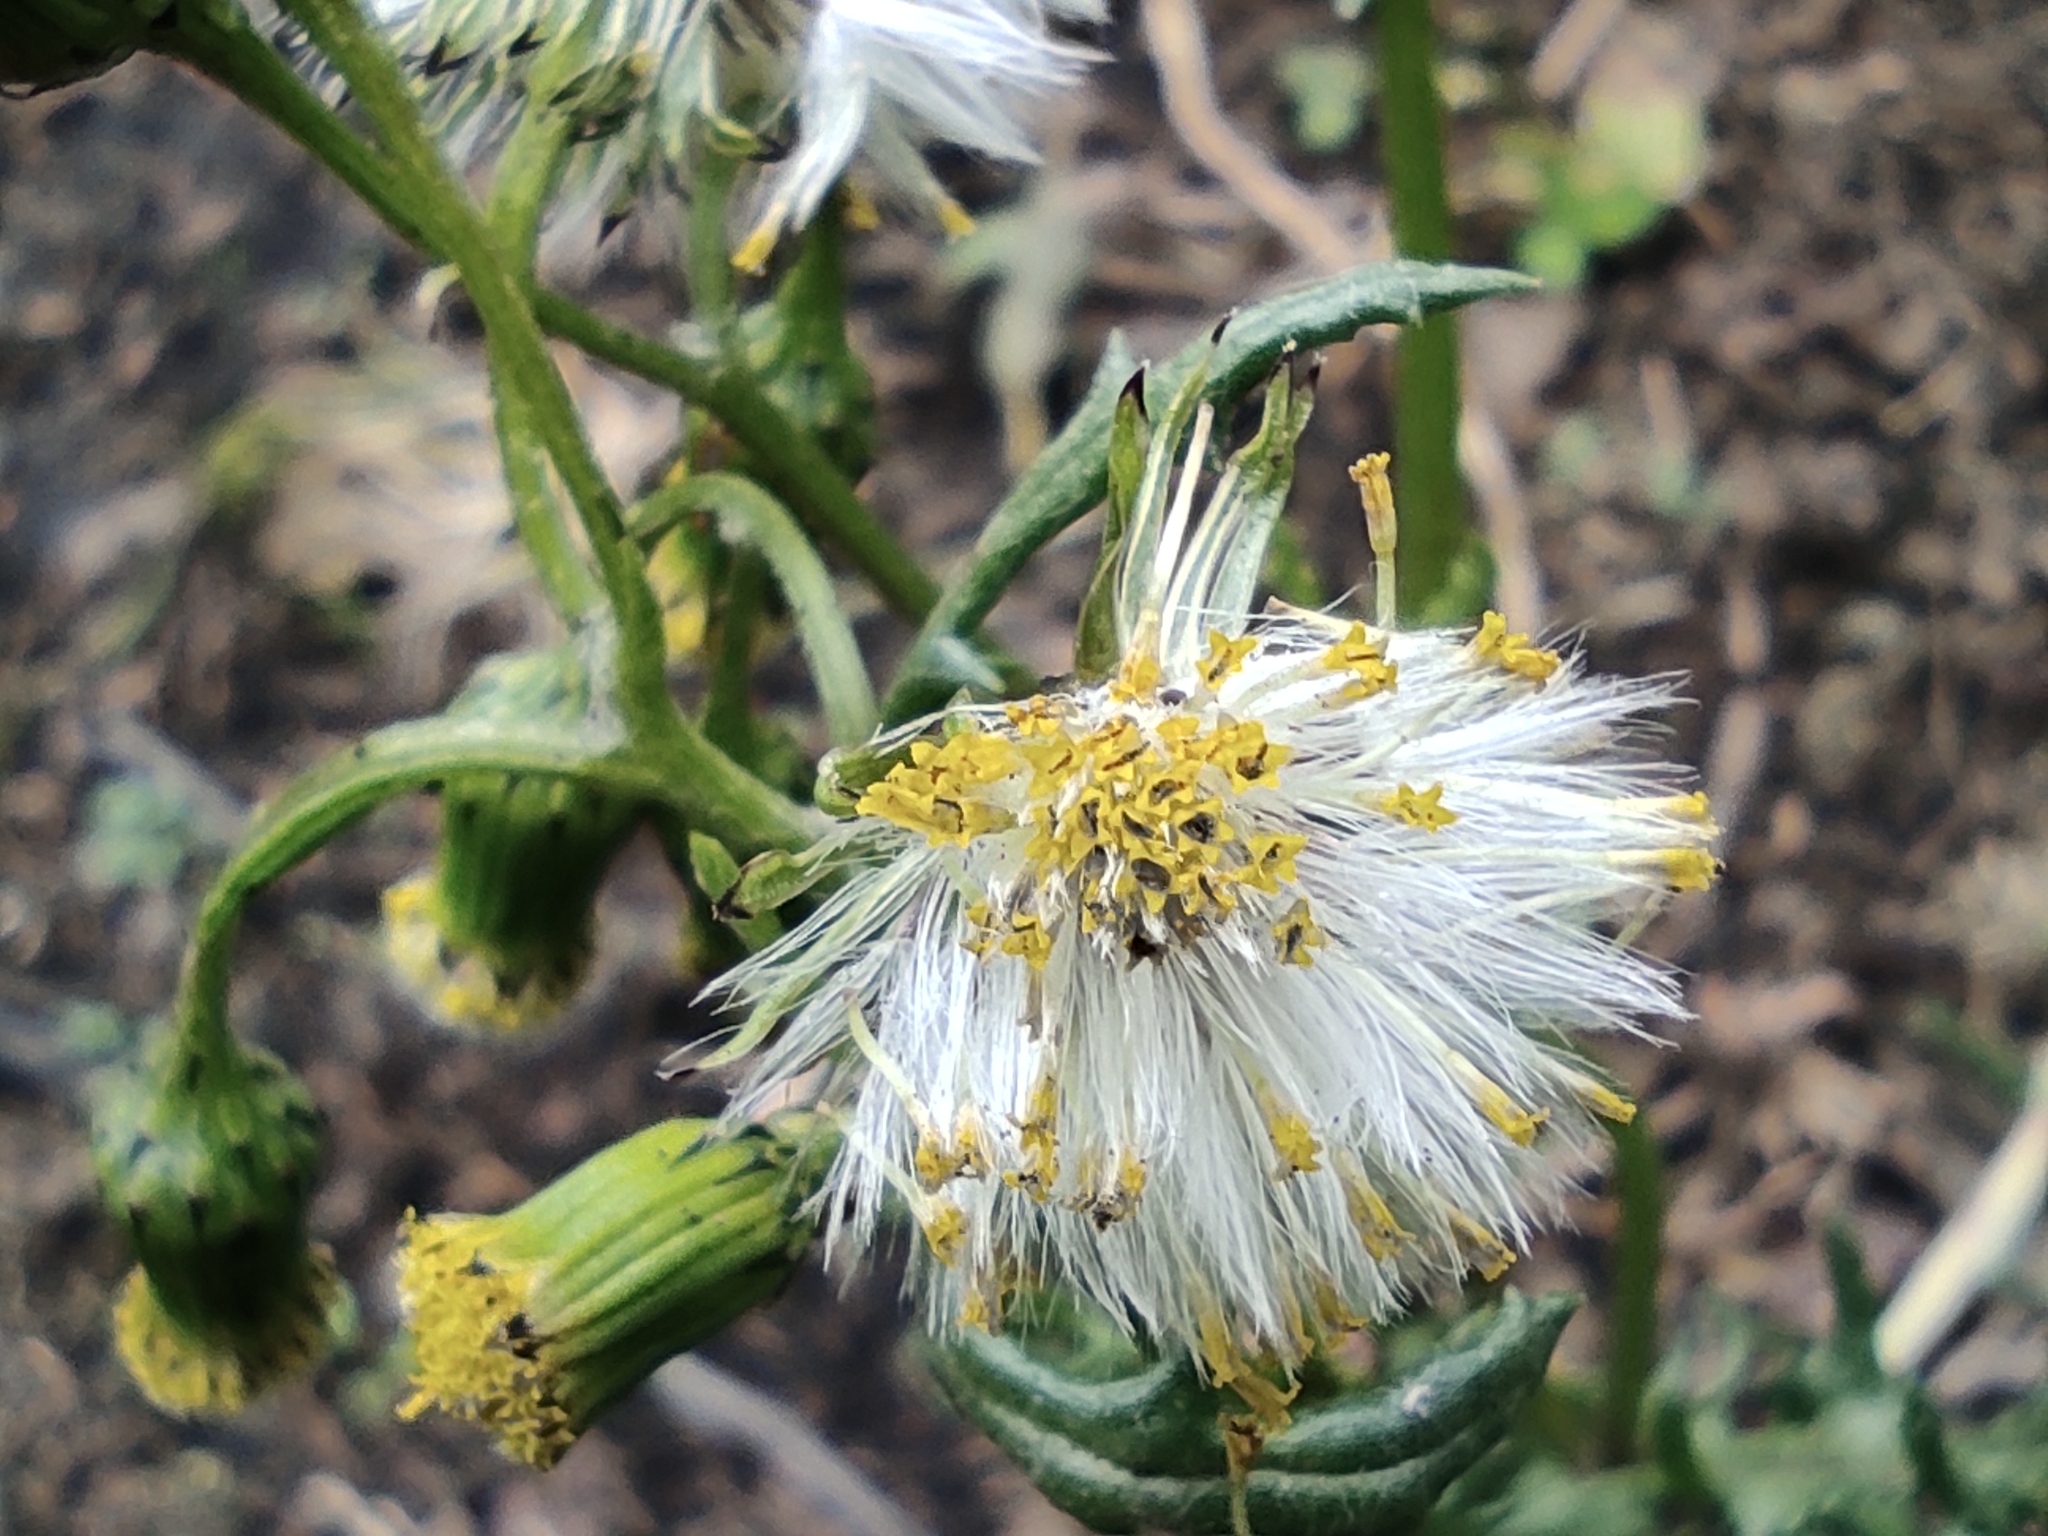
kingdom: Plantae
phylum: Tracheophyta
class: Magnoliopsida
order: Asterales
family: Asteraceae
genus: Senecio
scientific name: Senecio vulgaris
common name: Old-man-in-the-spring
